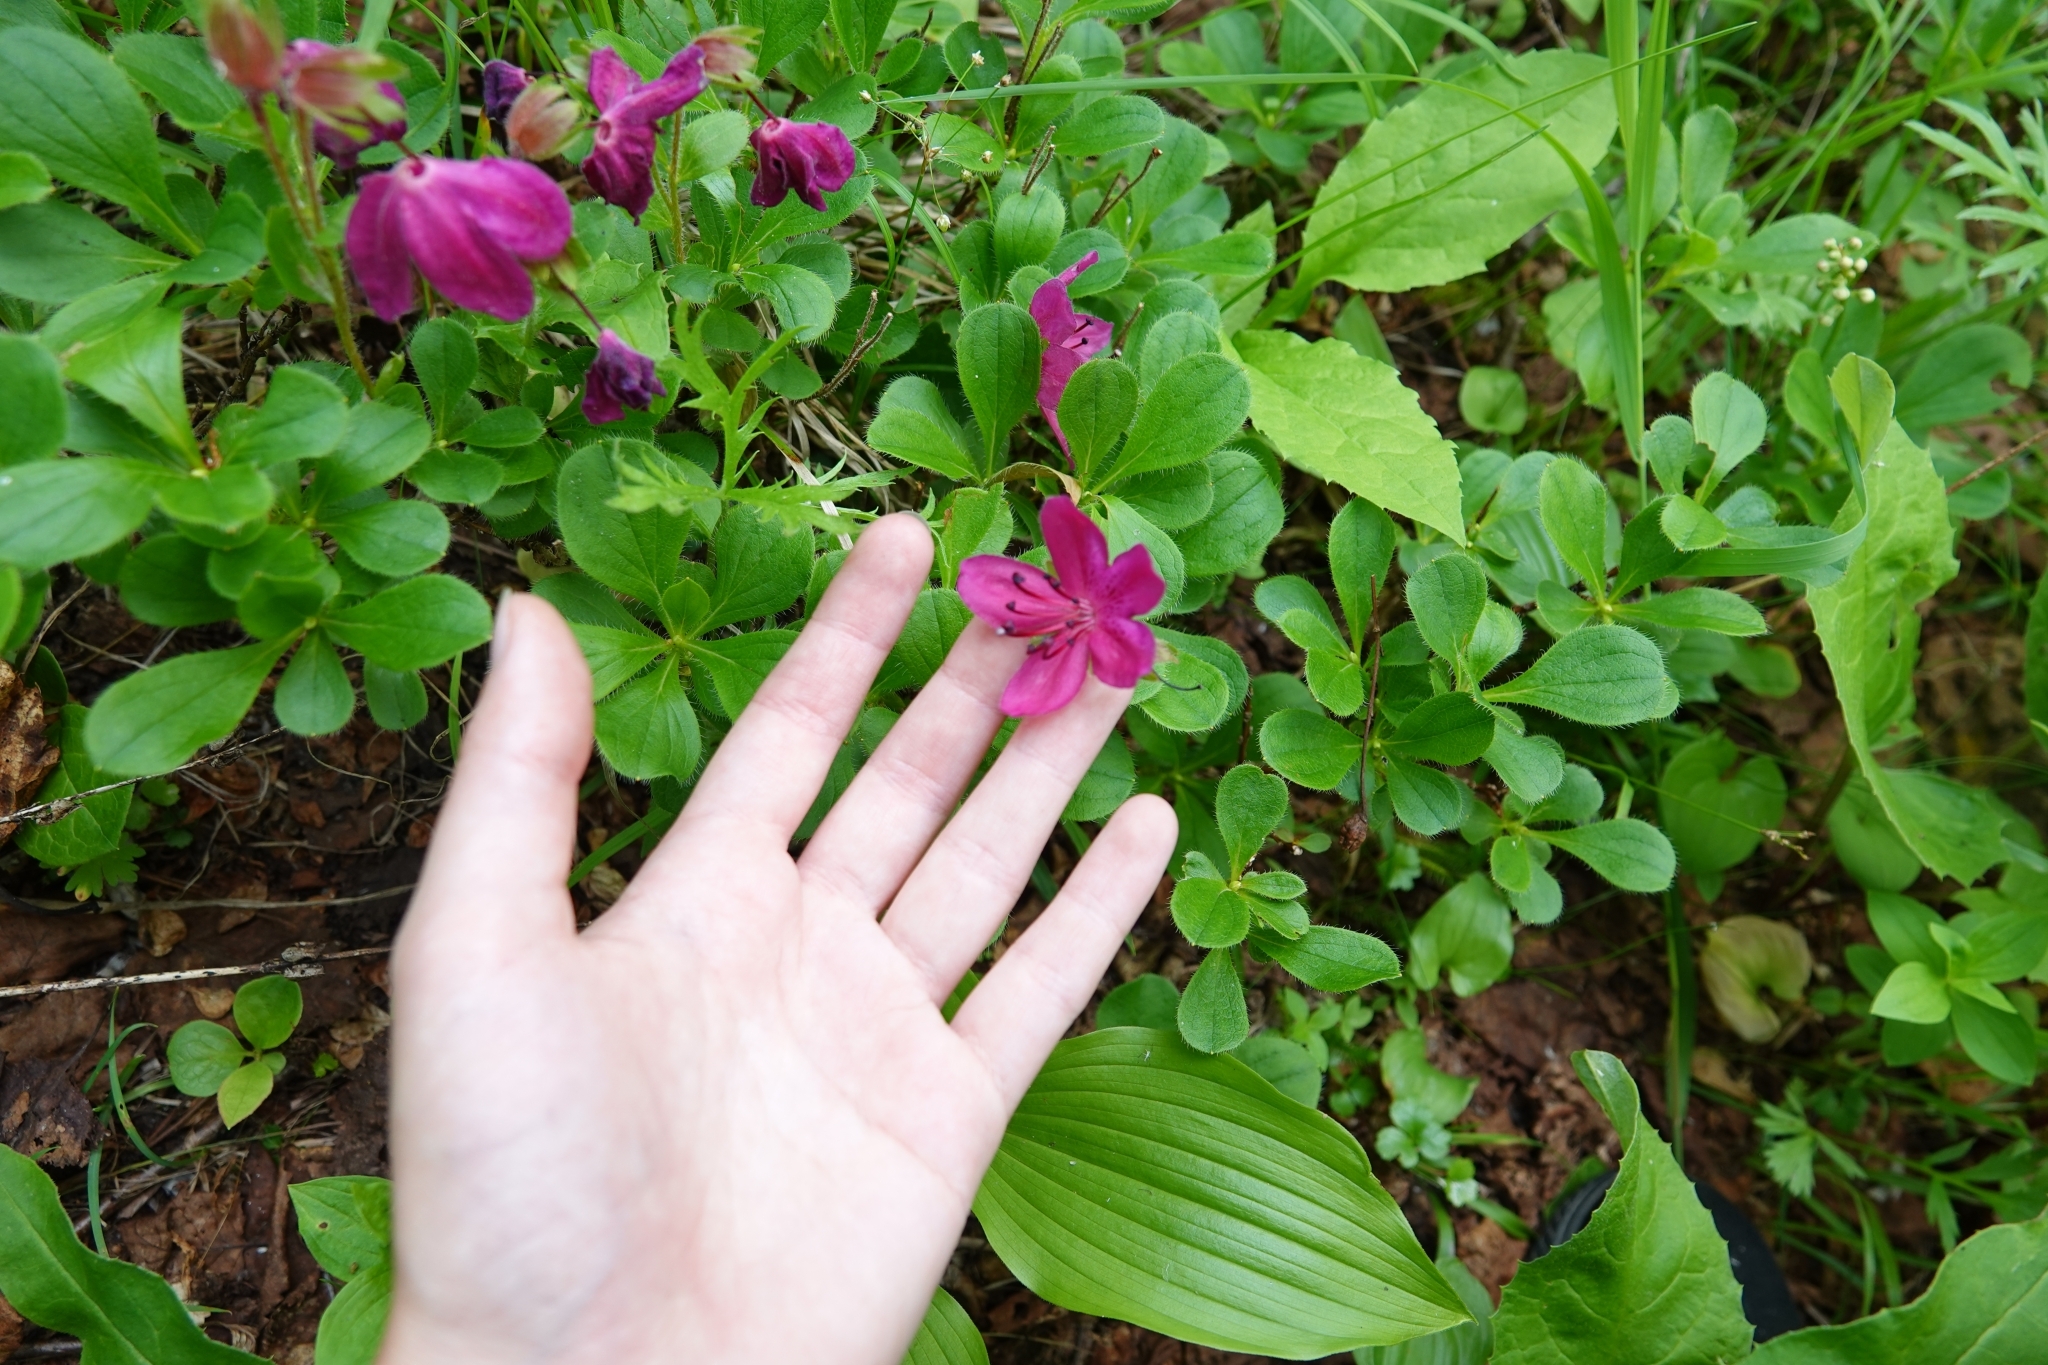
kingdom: Plantae
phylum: Tracheophyta
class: Magnoliopsida
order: Ericales
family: Ericaceae
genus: Rhododendron
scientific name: Rhododendron camtschaticum
